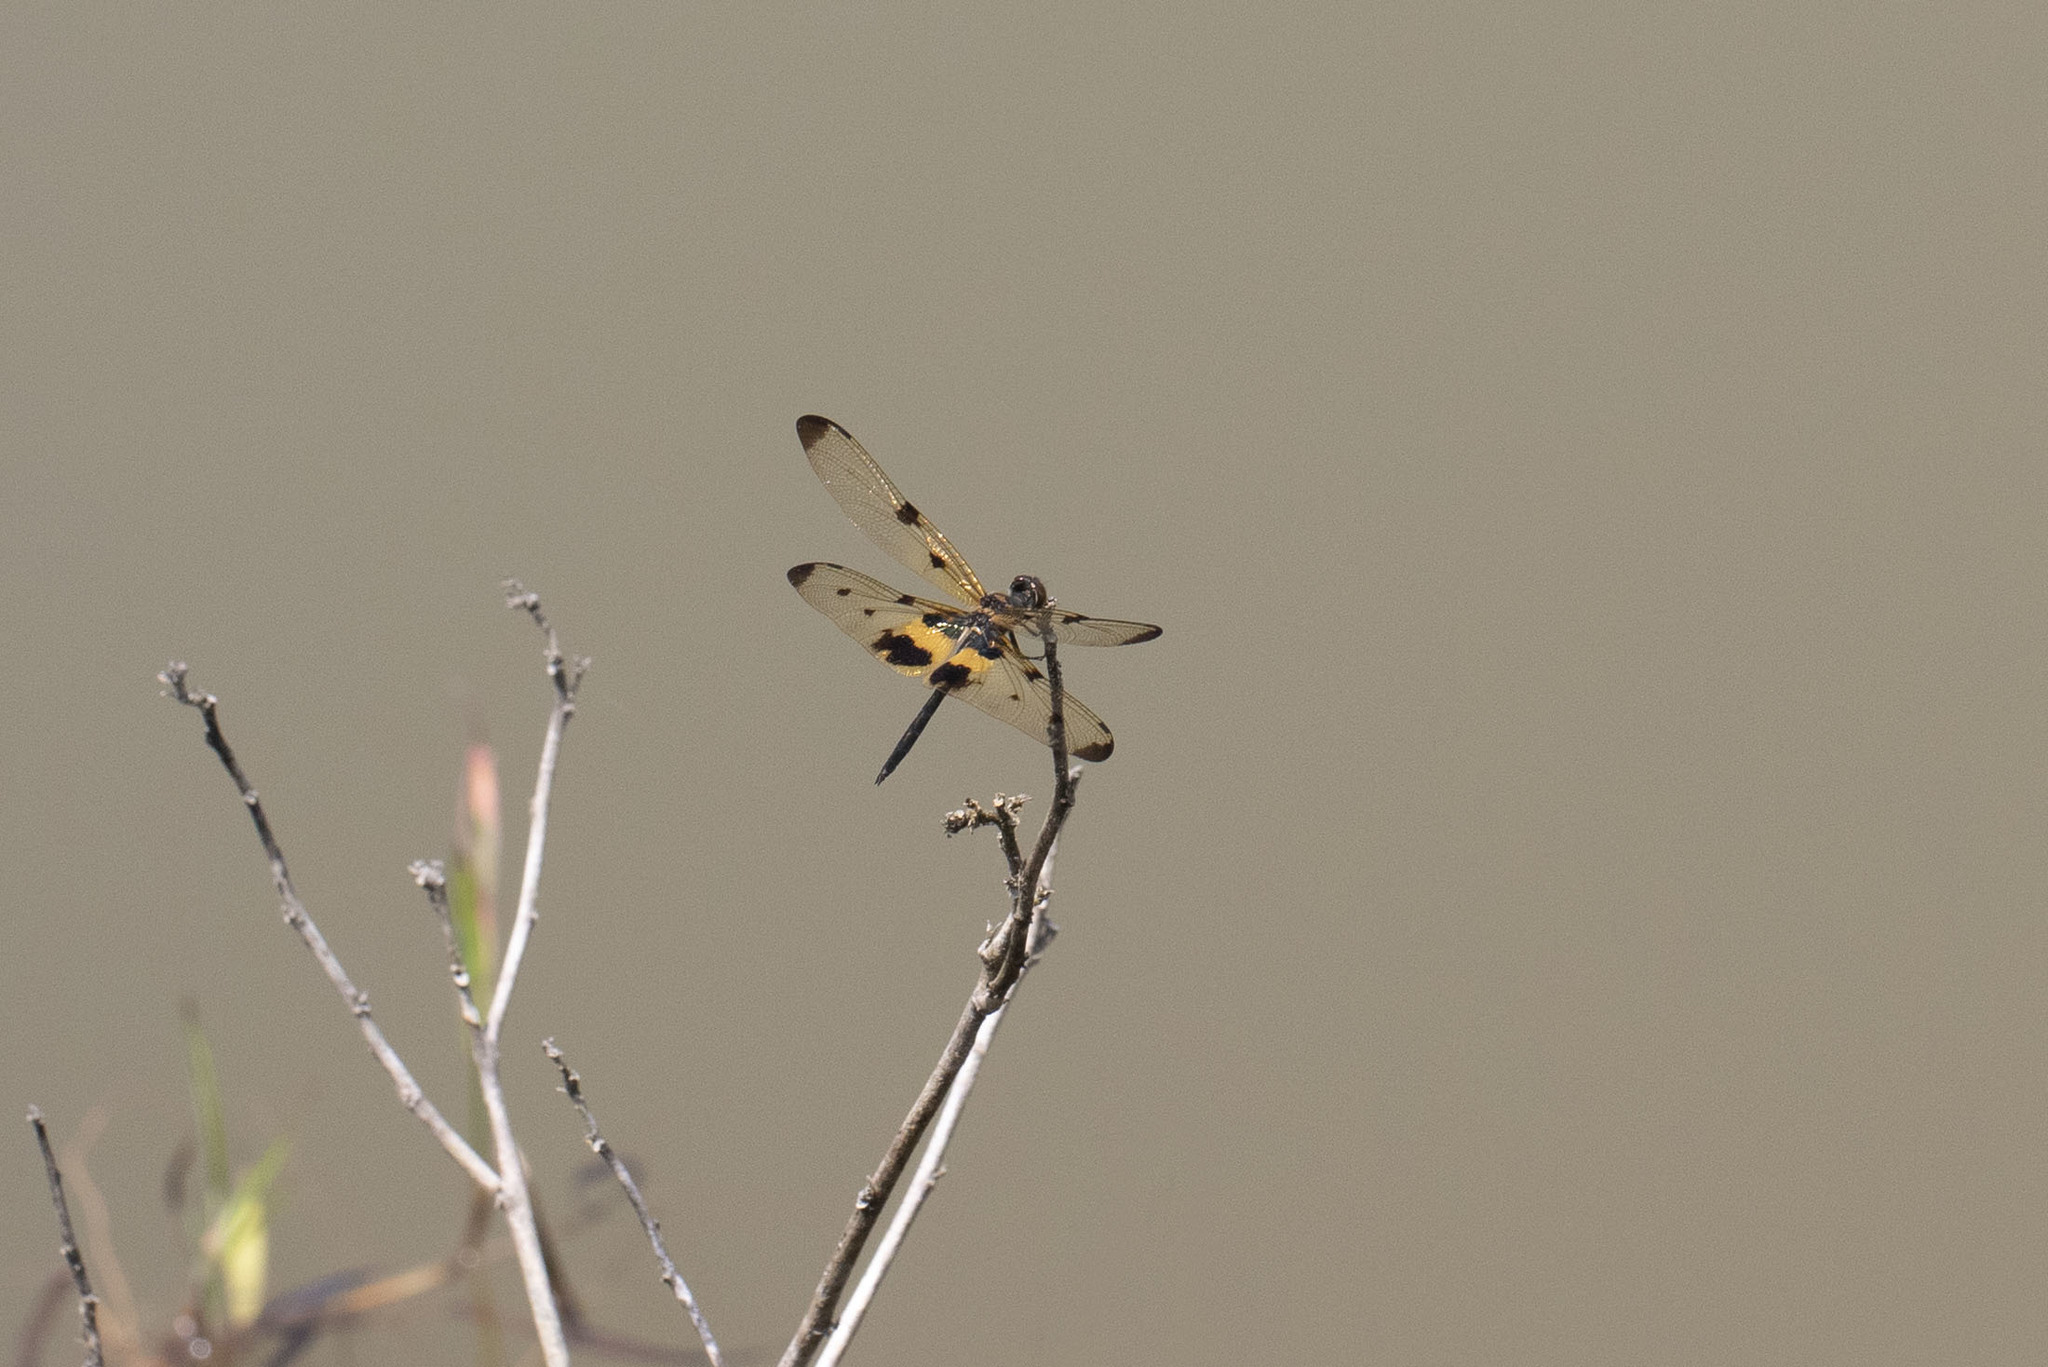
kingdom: Animalia
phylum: Arthropoda
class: Insecta
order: Odonata
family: Libellulidae
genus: Rhyothemis
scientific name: Rhyothemis variegata
